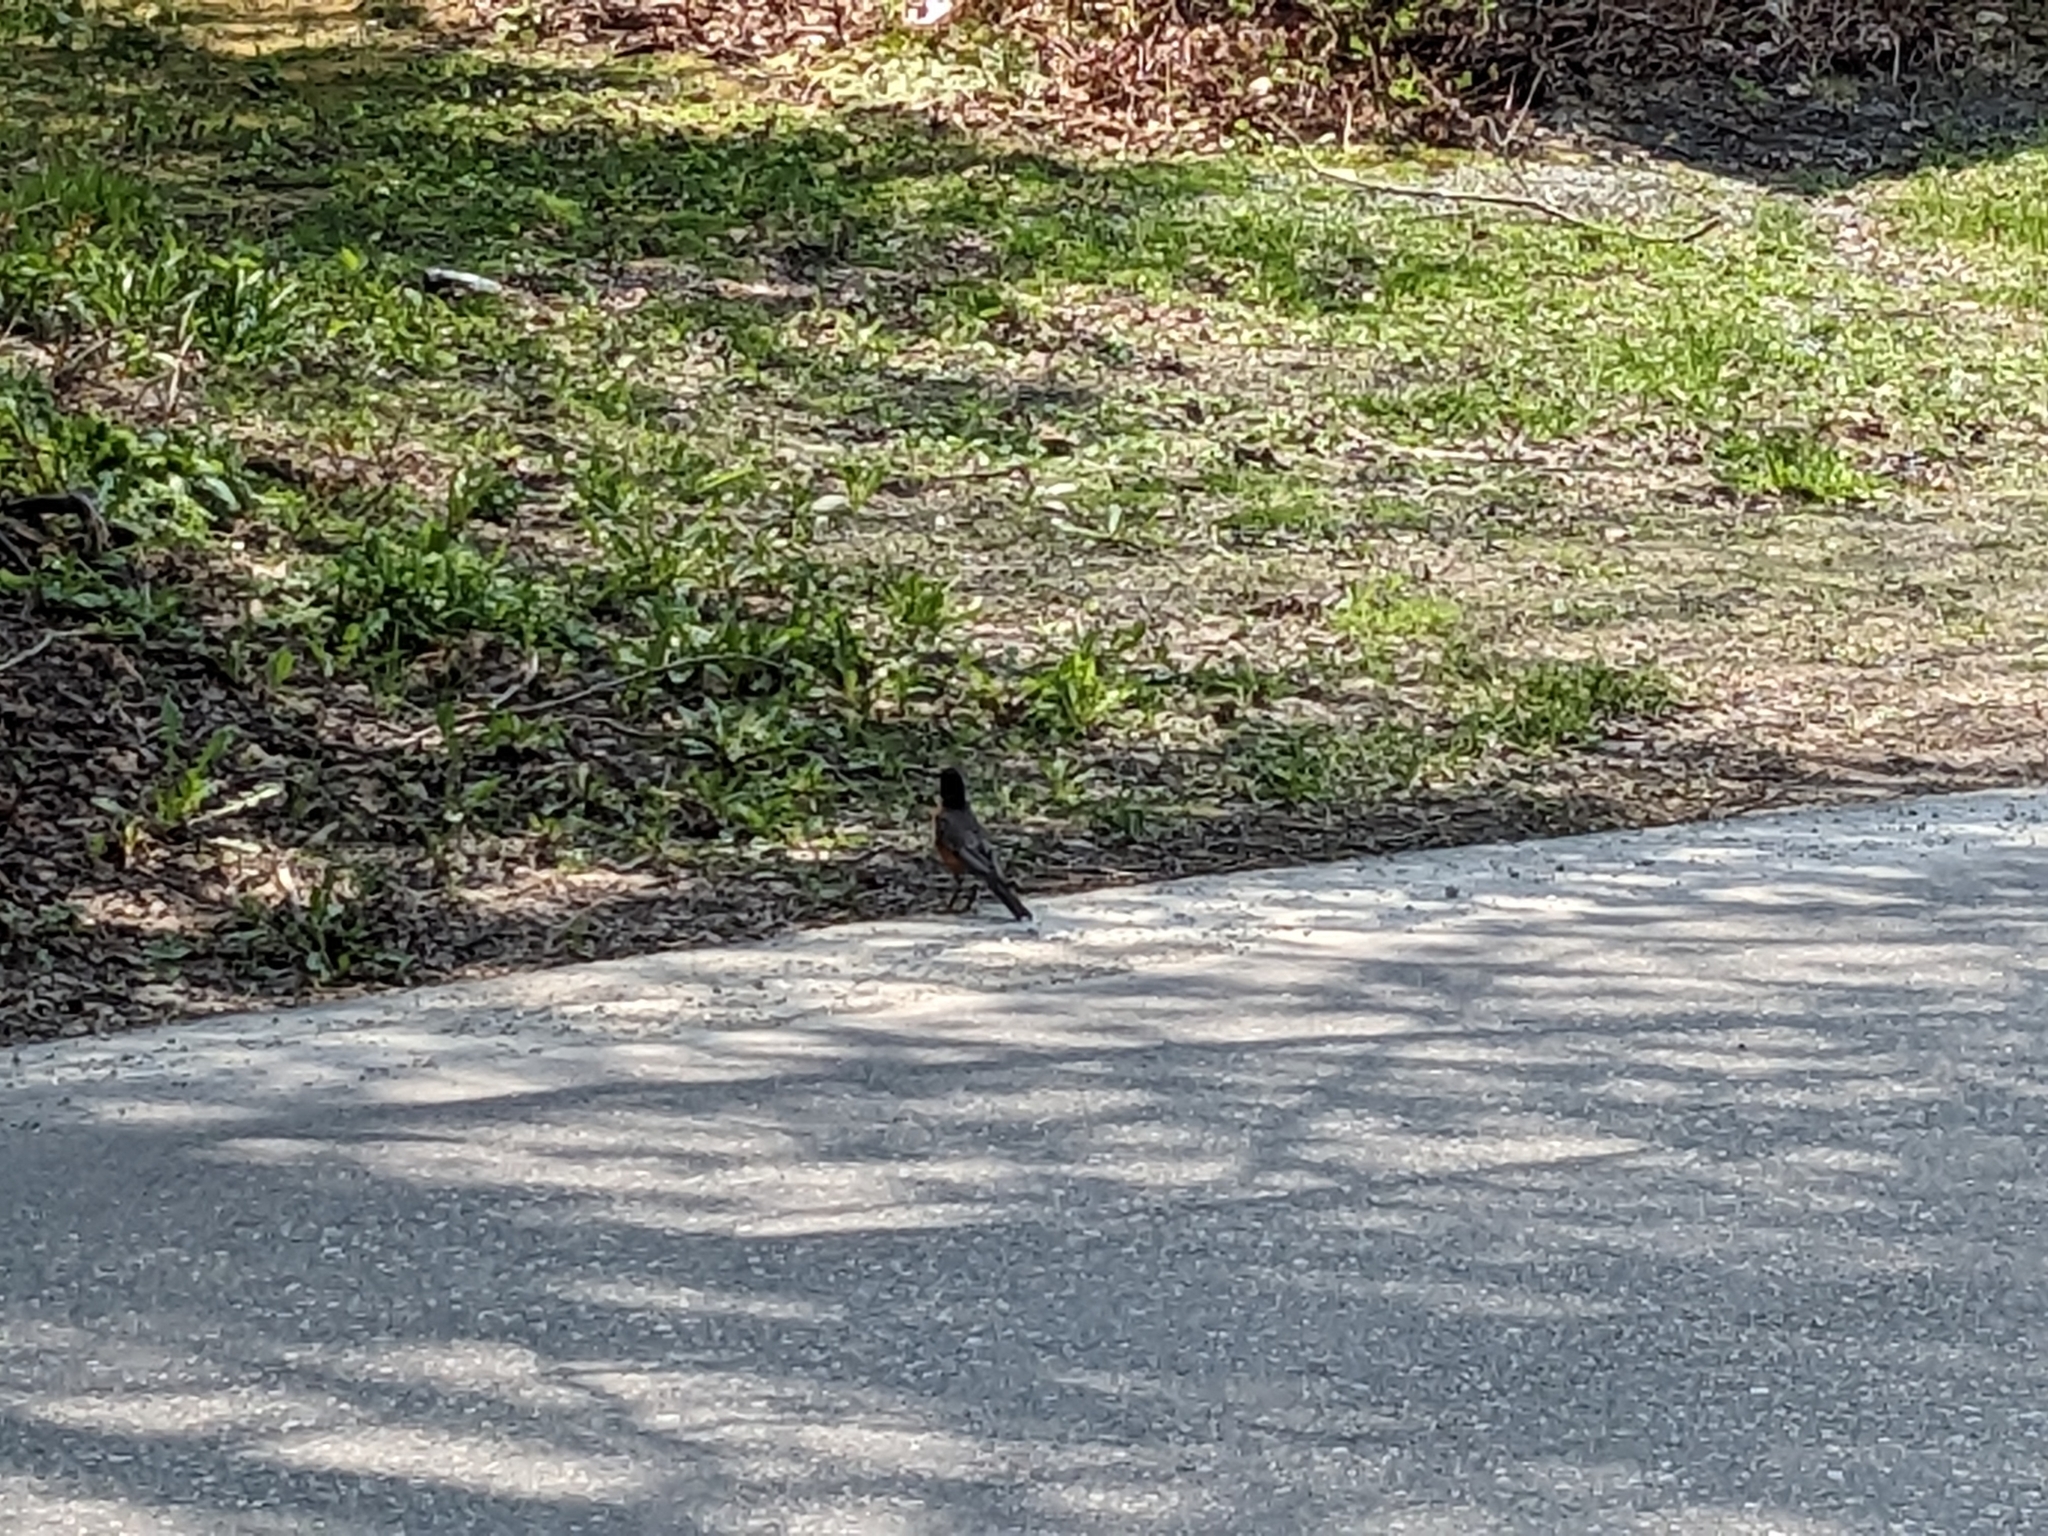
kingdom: Animalia
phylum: Chordata
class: Aves
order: Passeriformes
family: Turdidae
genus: Turdus
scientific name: Turdus migratorius
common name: American robin
